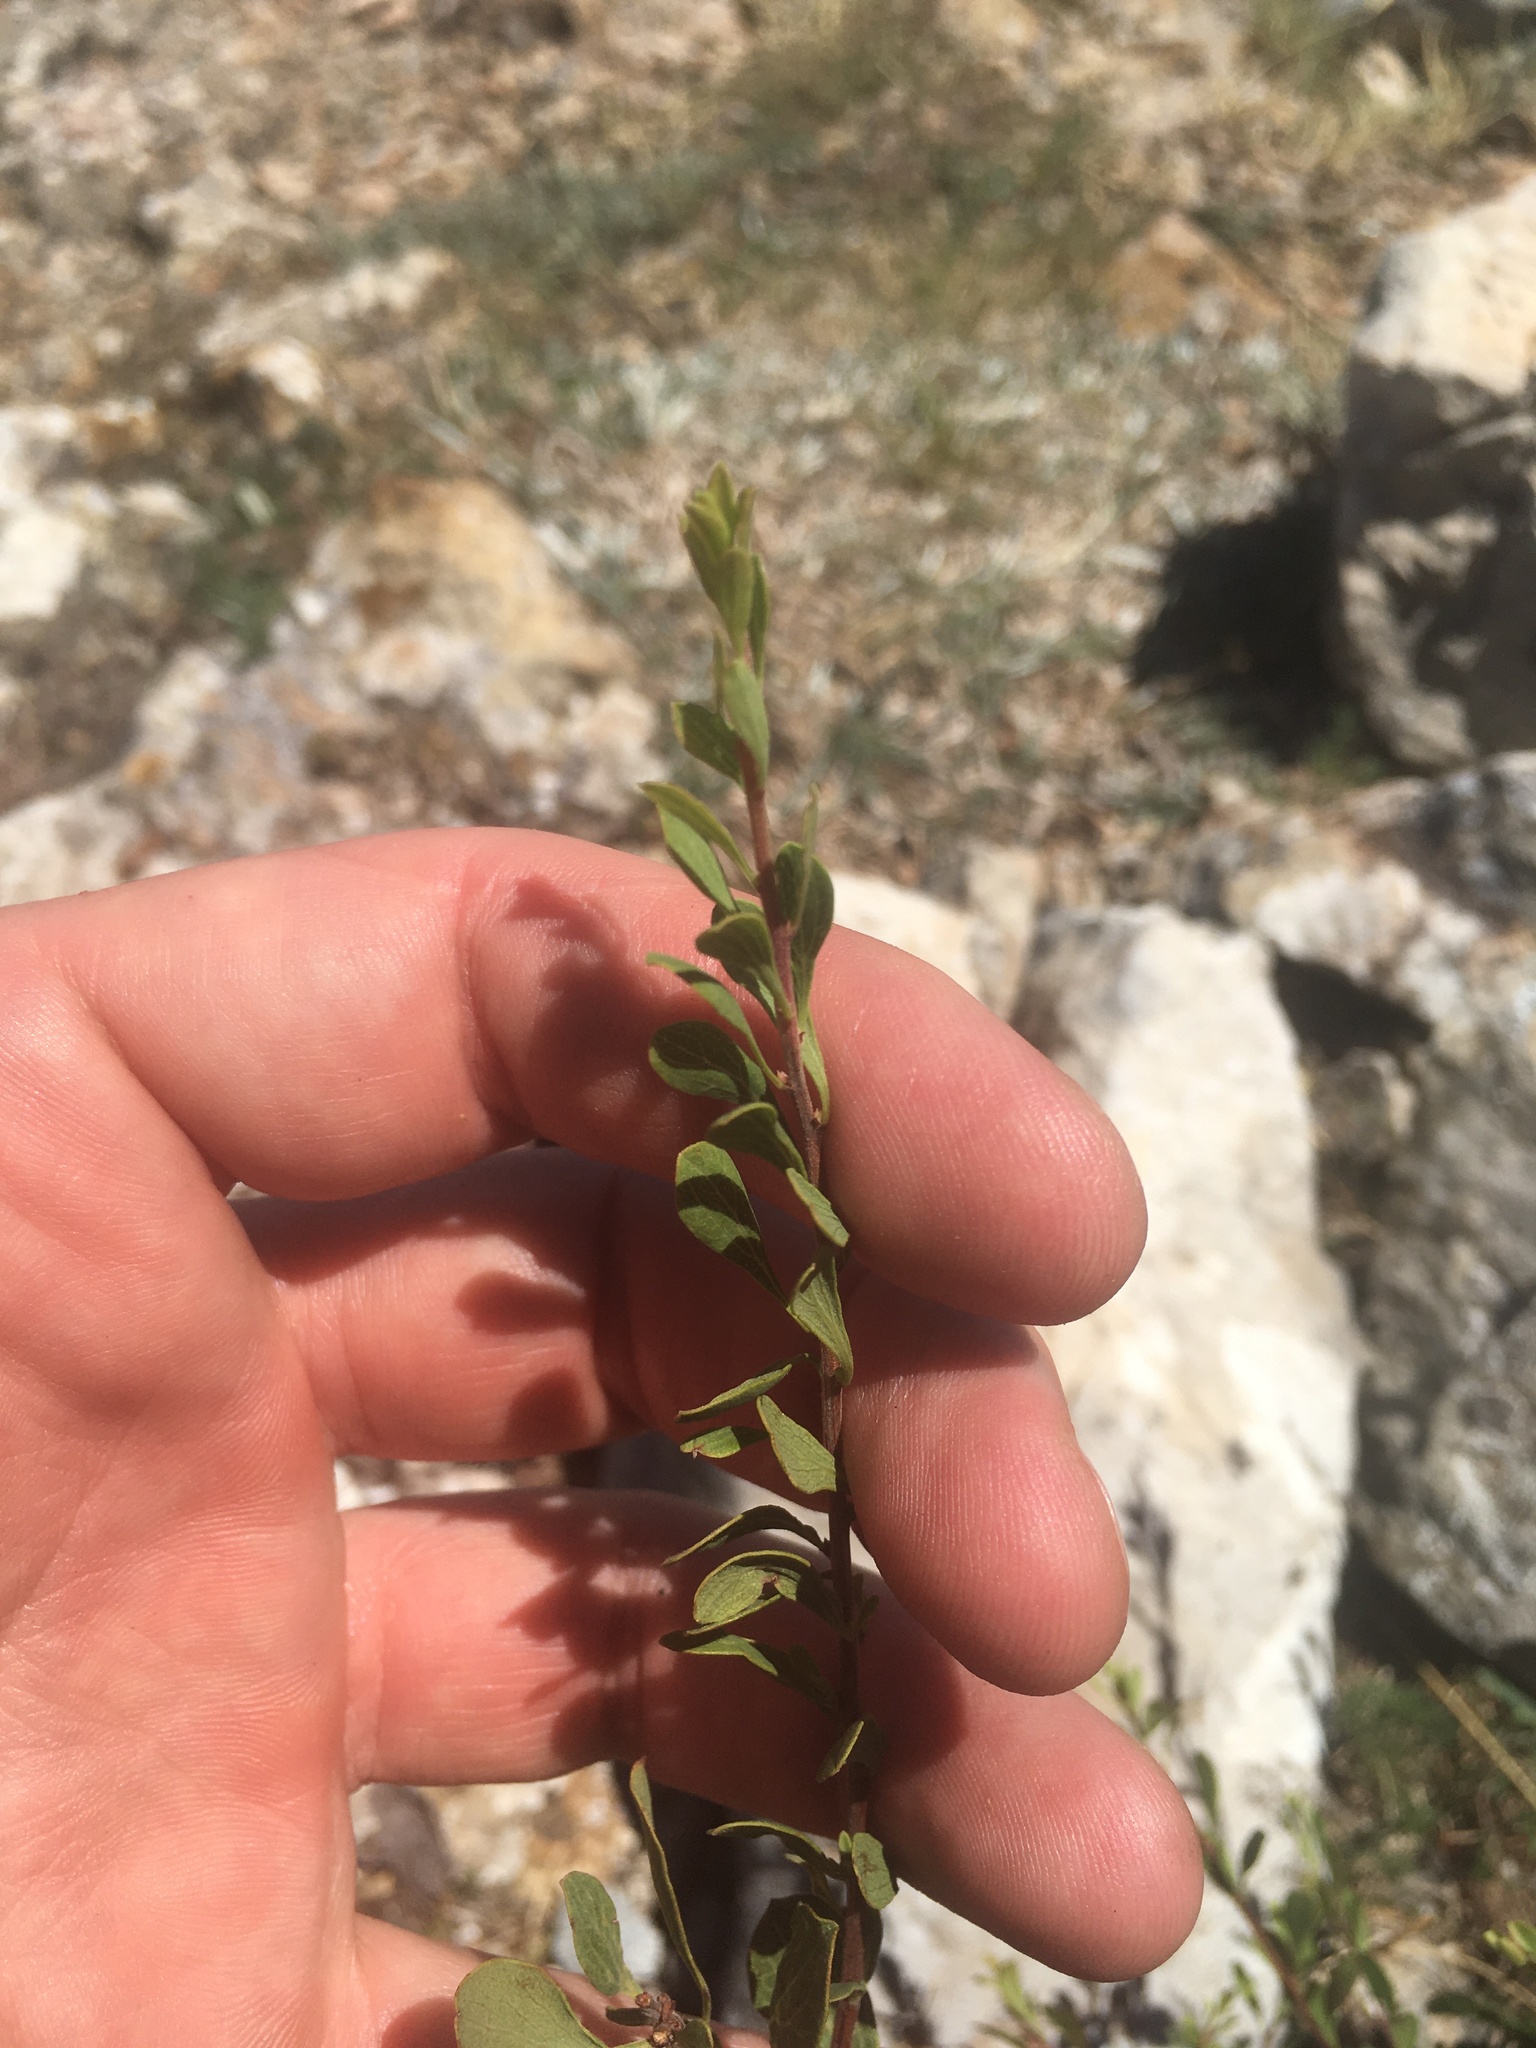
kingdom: Plantae
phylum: Tracheophyta
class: Magnoliopsida
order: Rosales
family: Rosaceae
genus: Spiraea
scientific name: Spiraea hypericifolia
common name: Iberian spirea
